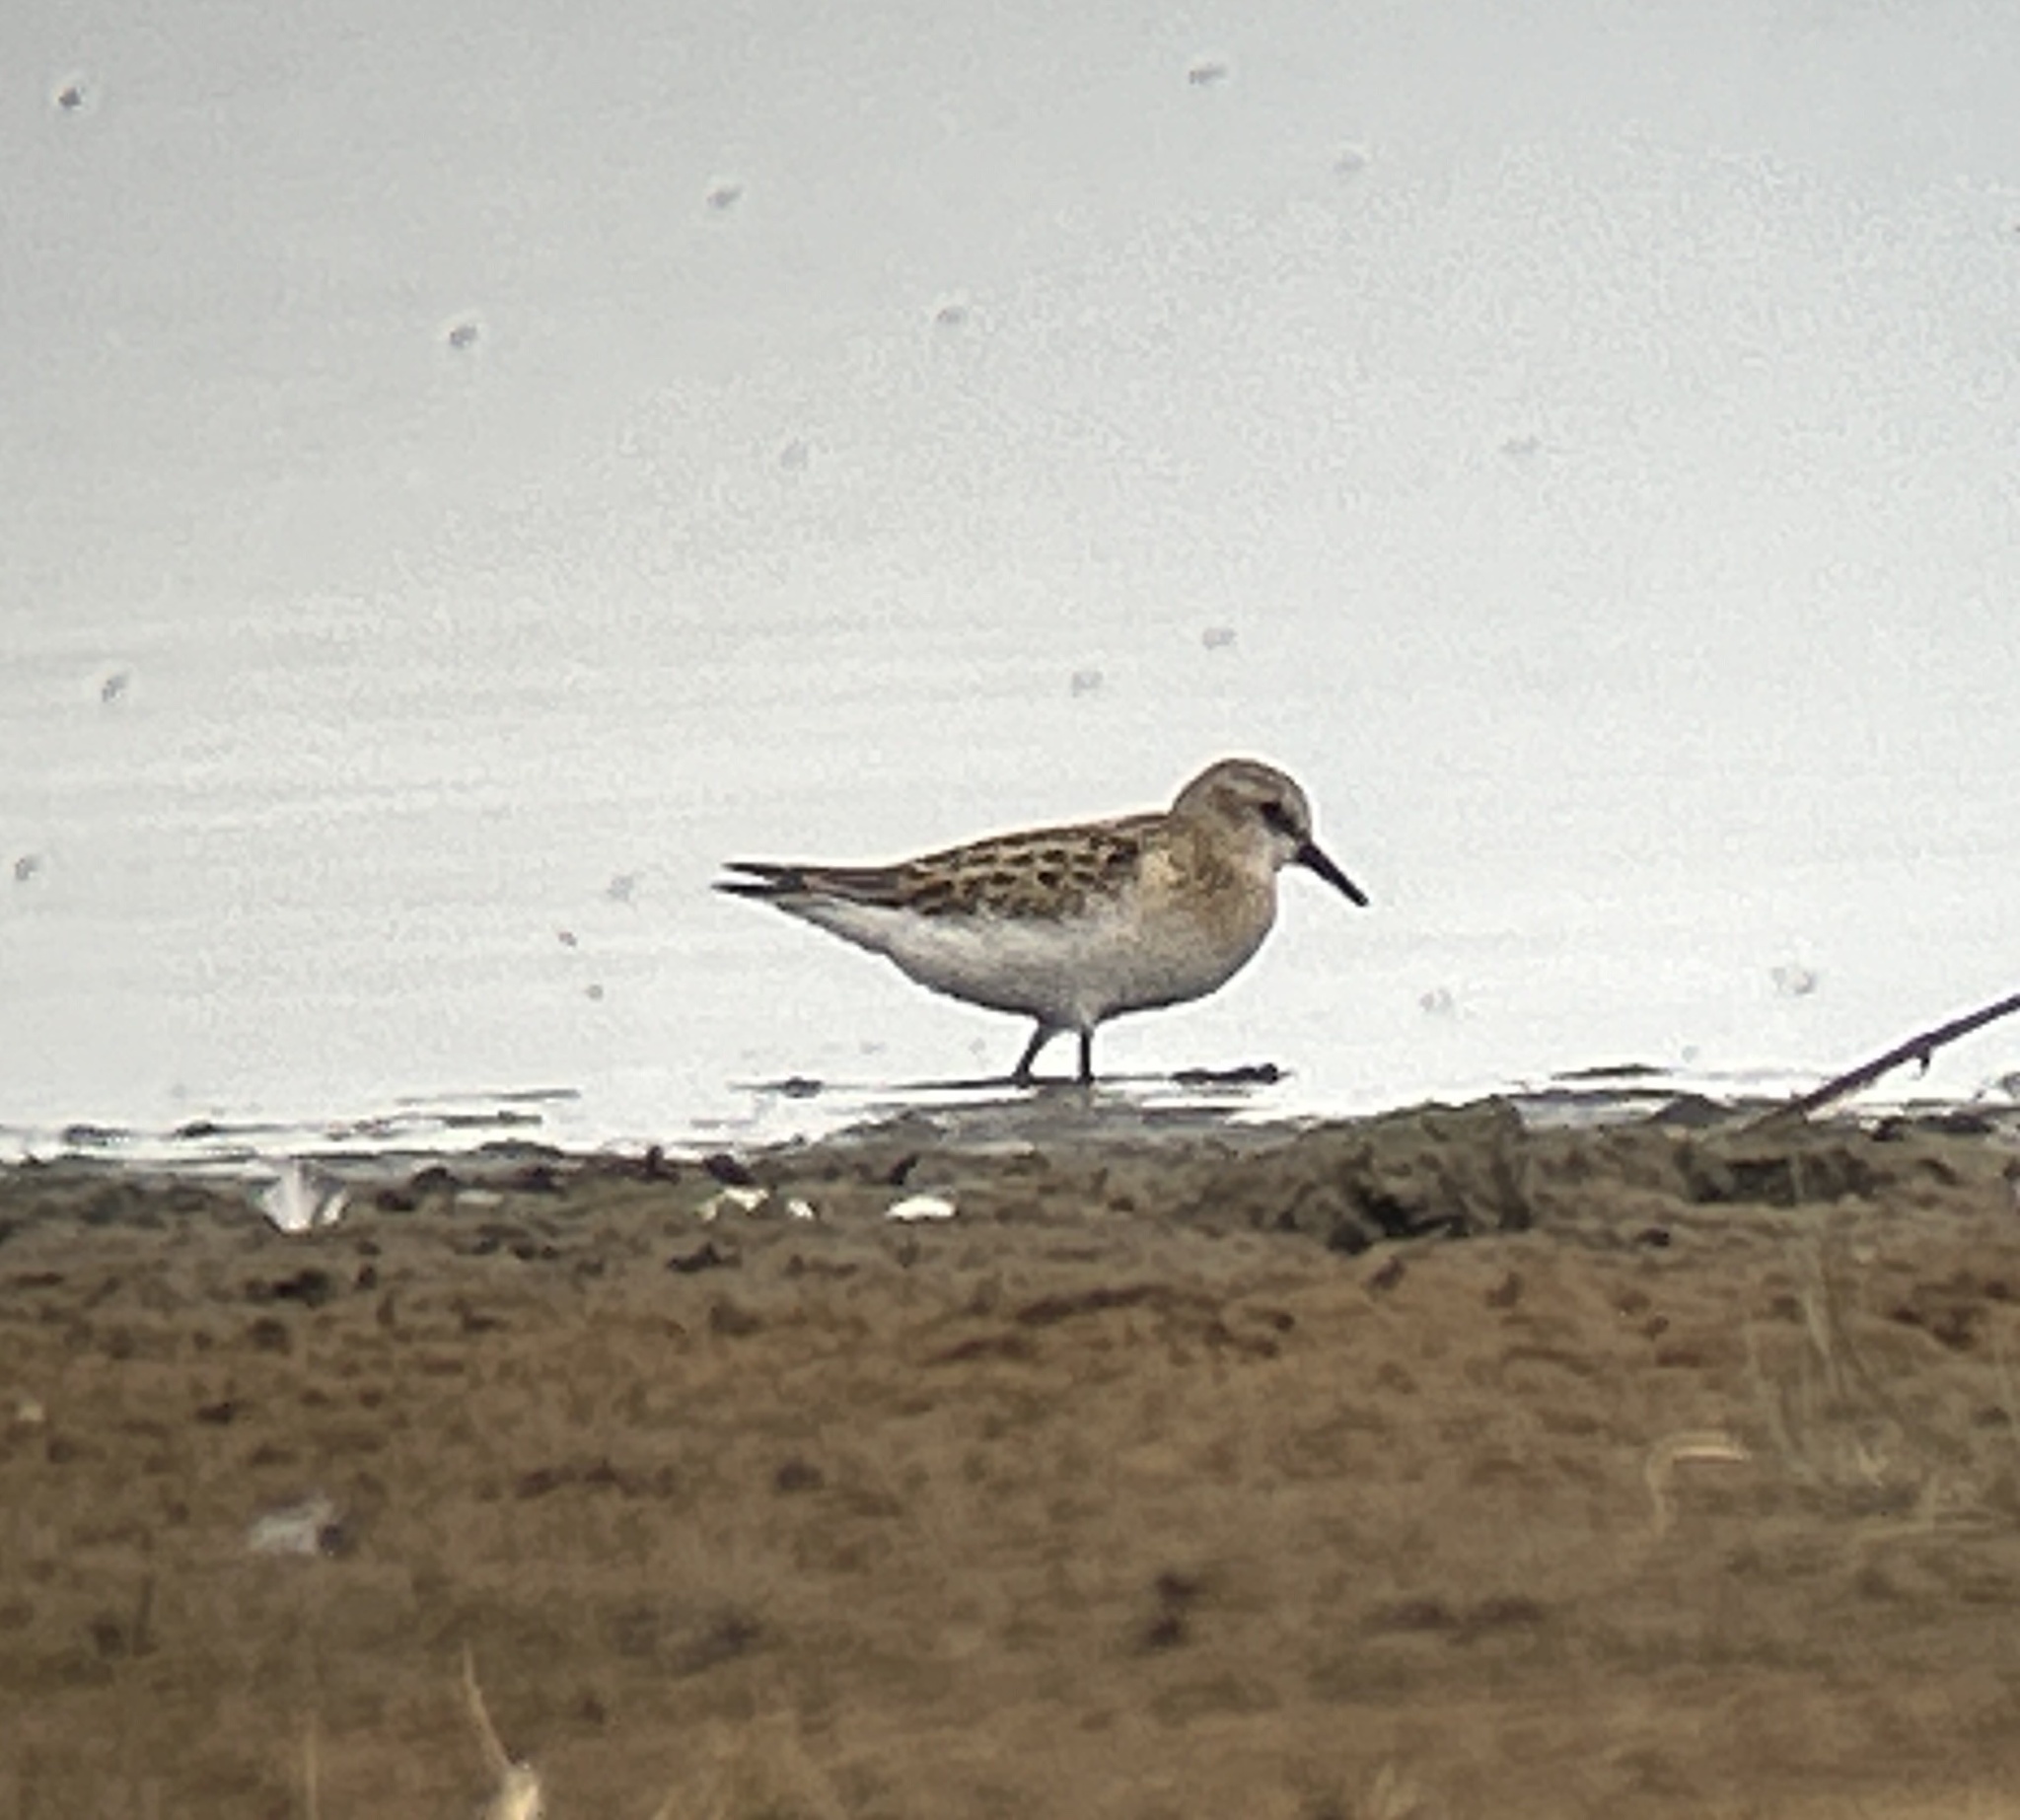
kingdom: Animalia
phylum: Chordata
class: Aves
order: Charadriiformes
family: Scolopacidae
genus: Calidris
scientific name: Calidris minuta
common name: Little stint
